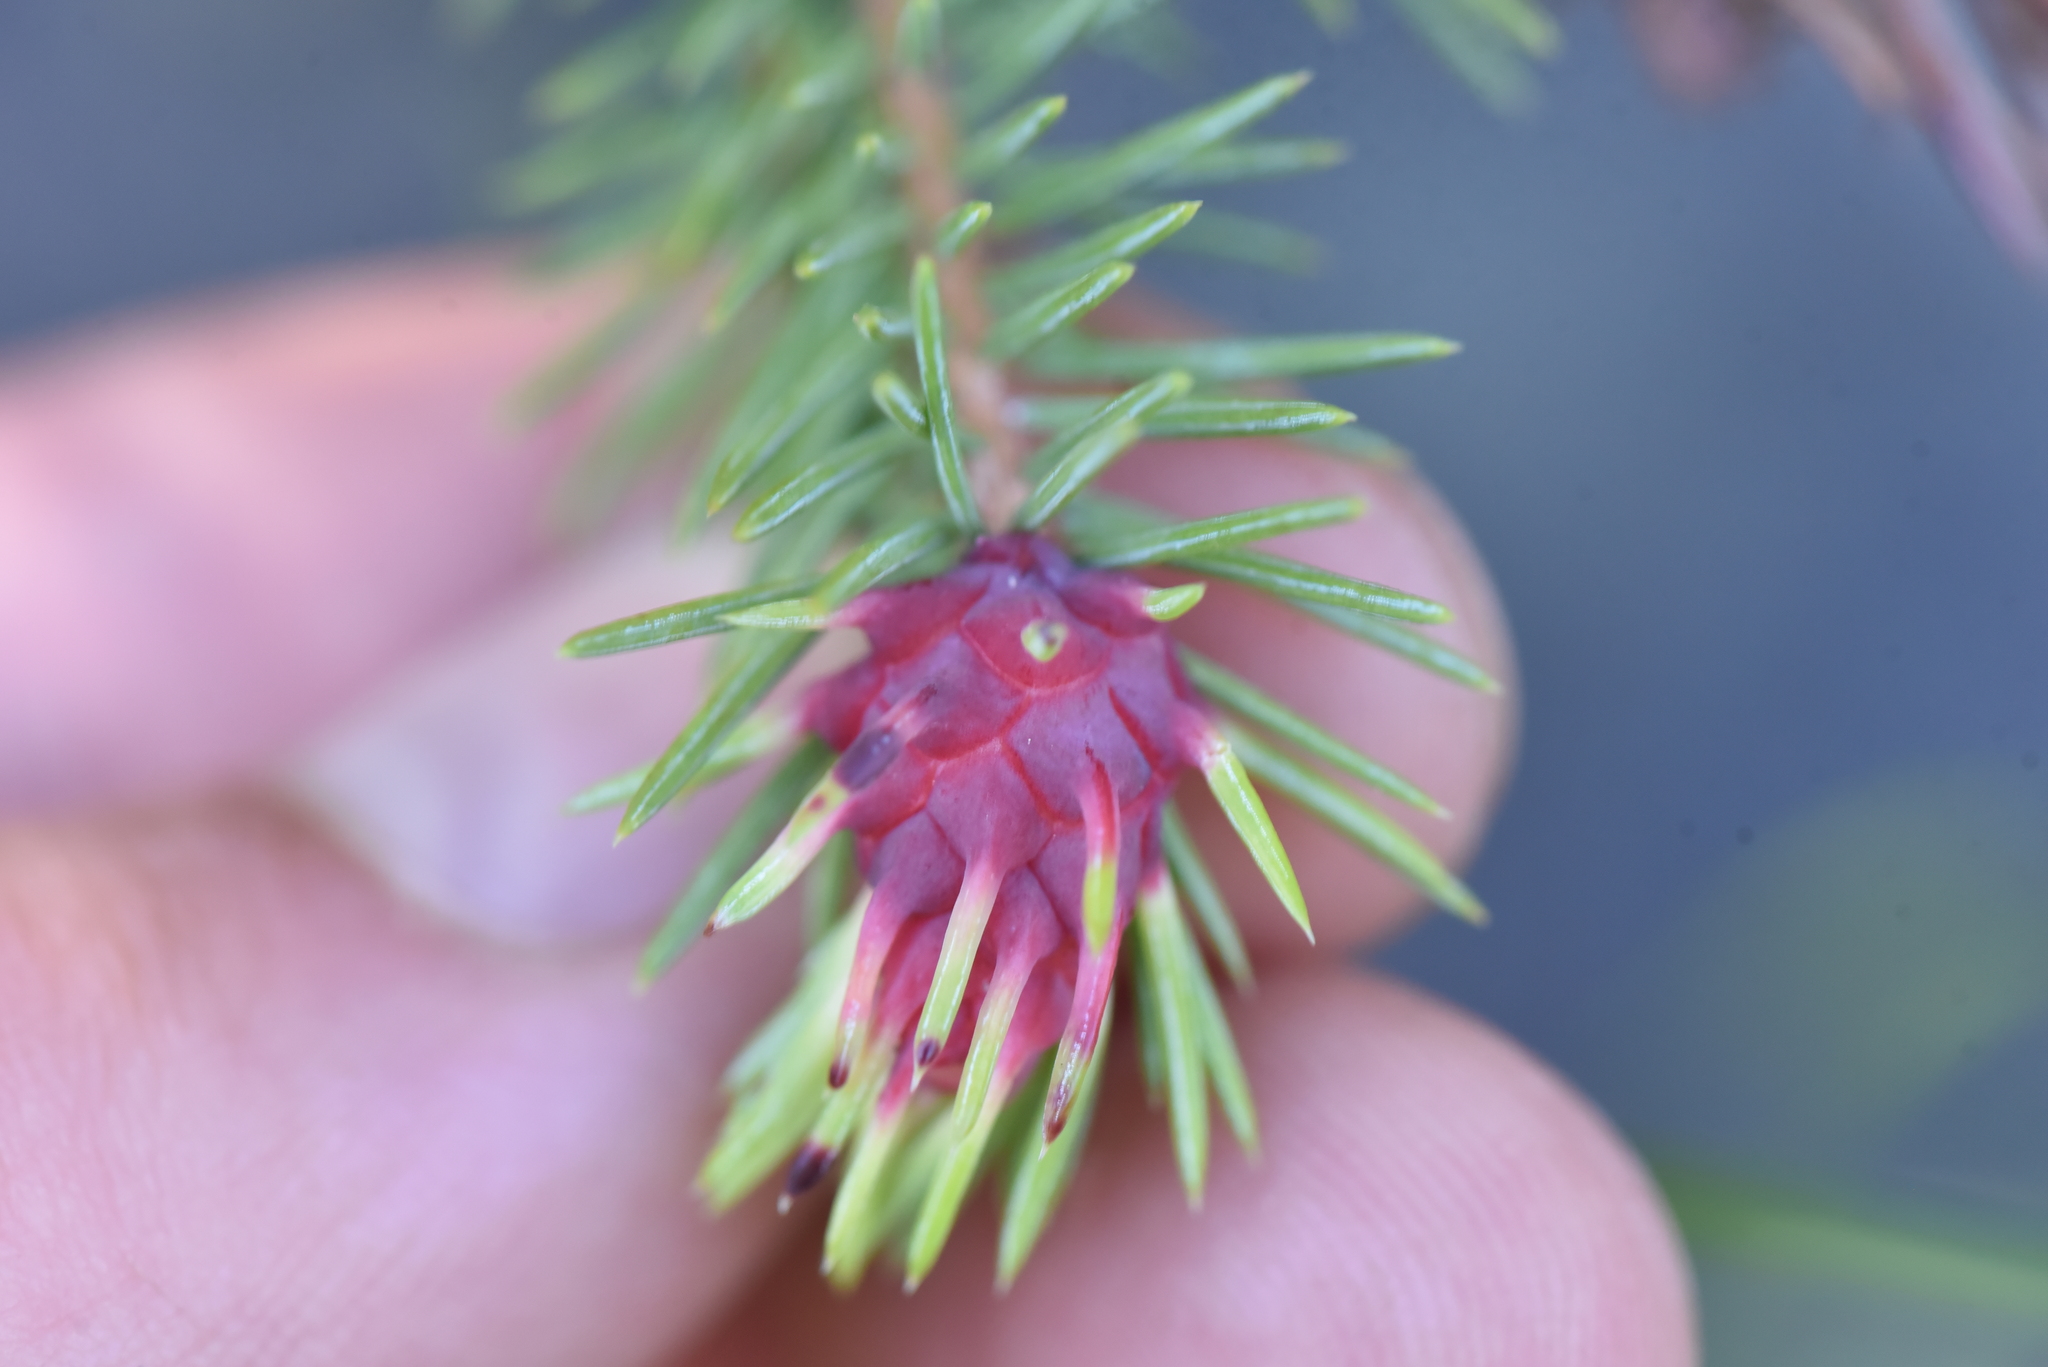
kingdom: Animalia
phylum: Arthropoda
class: Insecta
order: Hemiptera
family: Adelgidae
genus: Adelges
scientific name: Adelges cooleyi
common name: Cooley spruce gall adelgid
